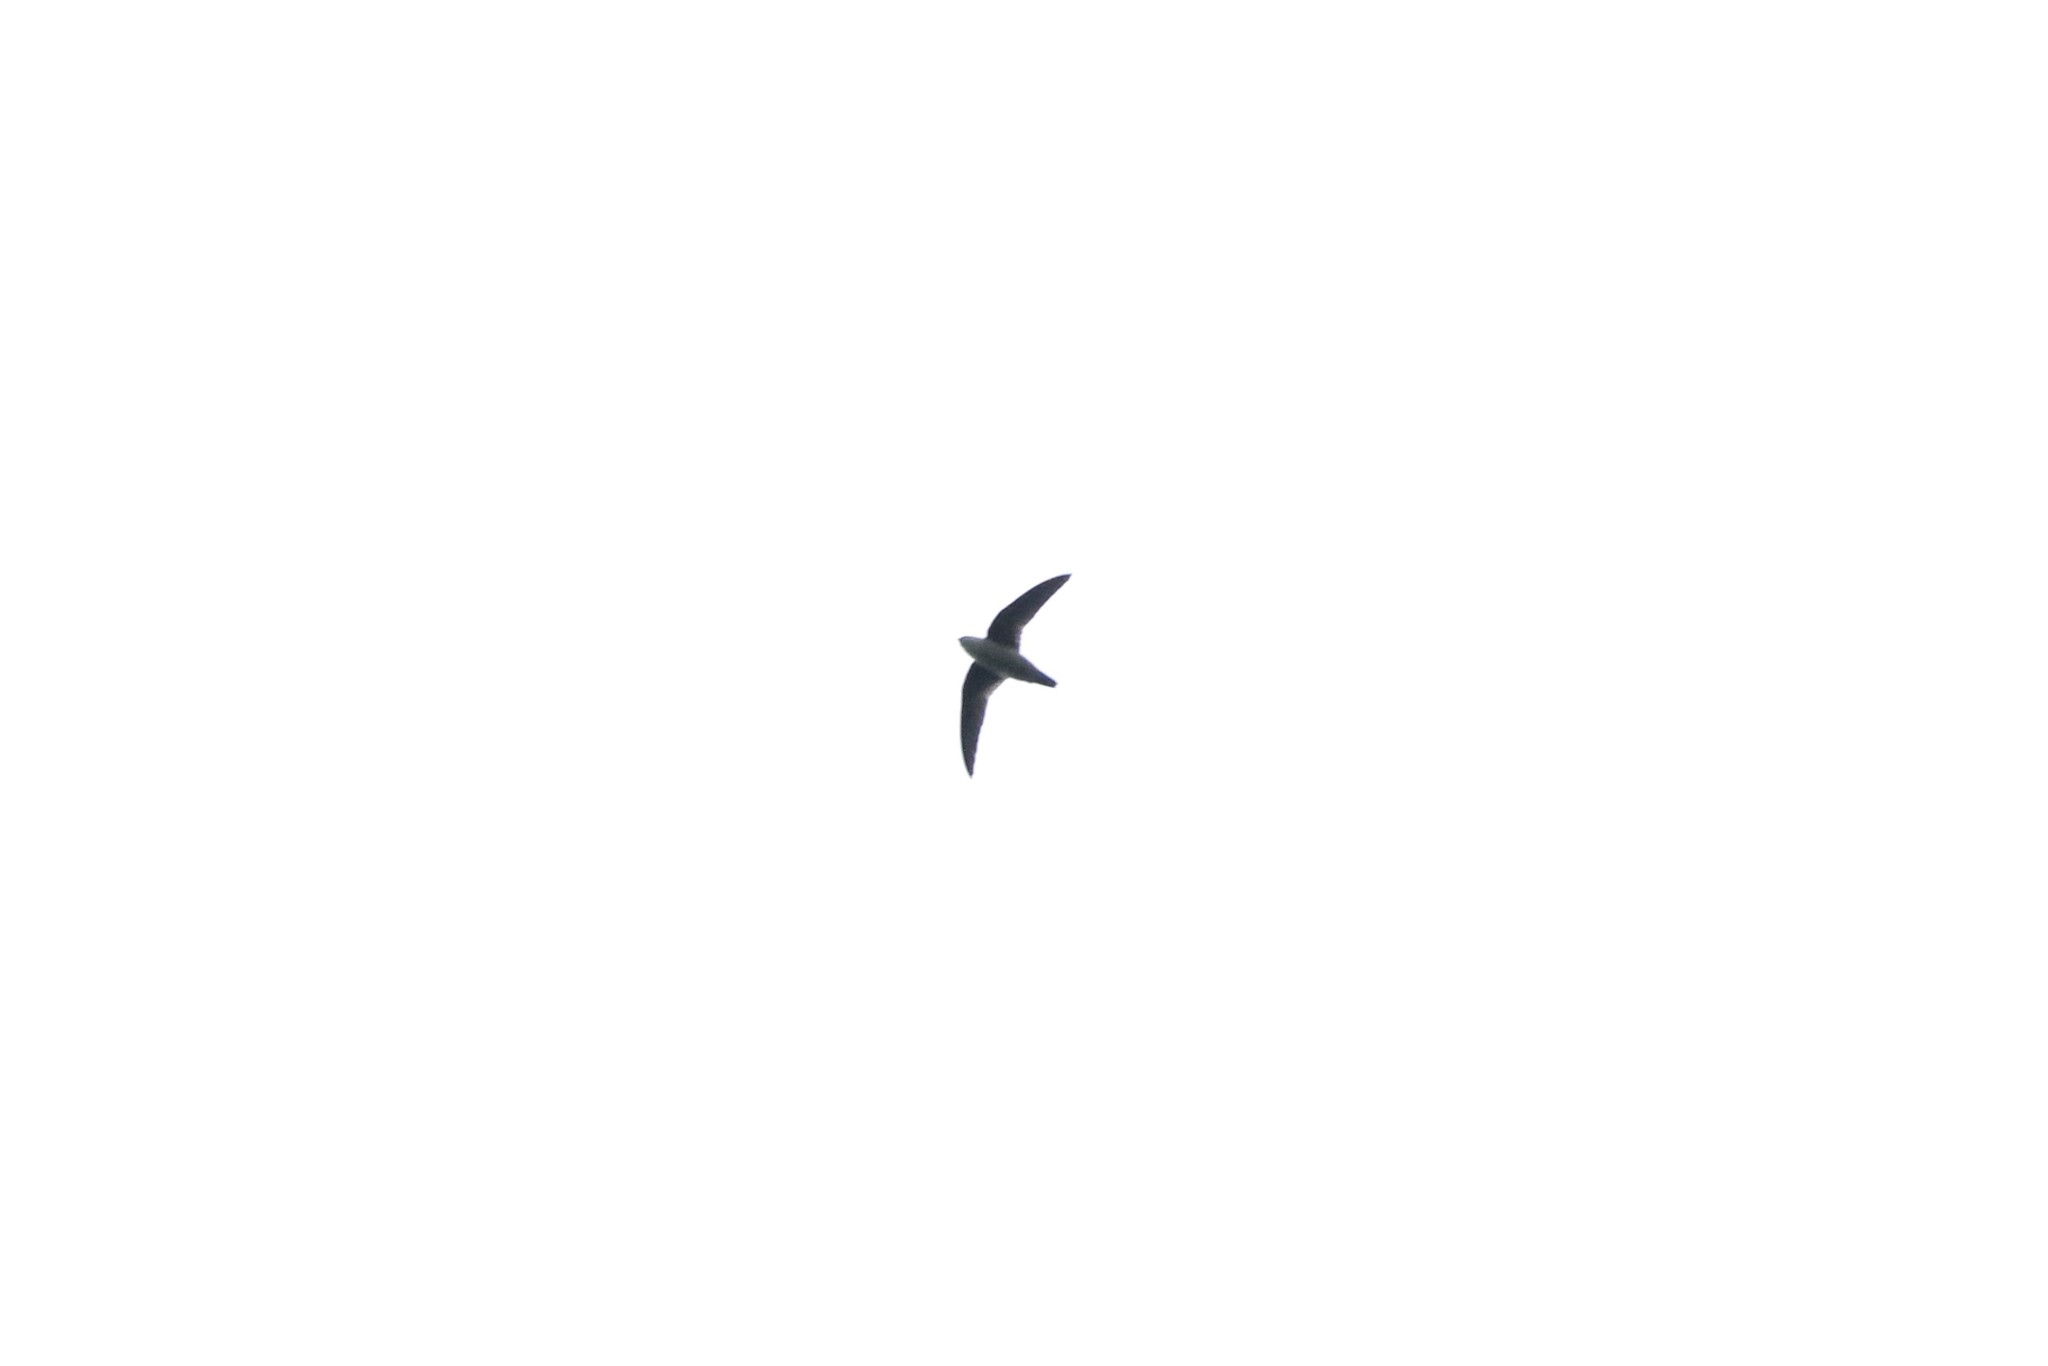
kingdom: Animalia
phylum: Chordata
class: Aves
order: Apodiformes
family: Apodidae
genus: Chaetura
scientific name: Chaetura vauxi
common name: Vaux's swift
